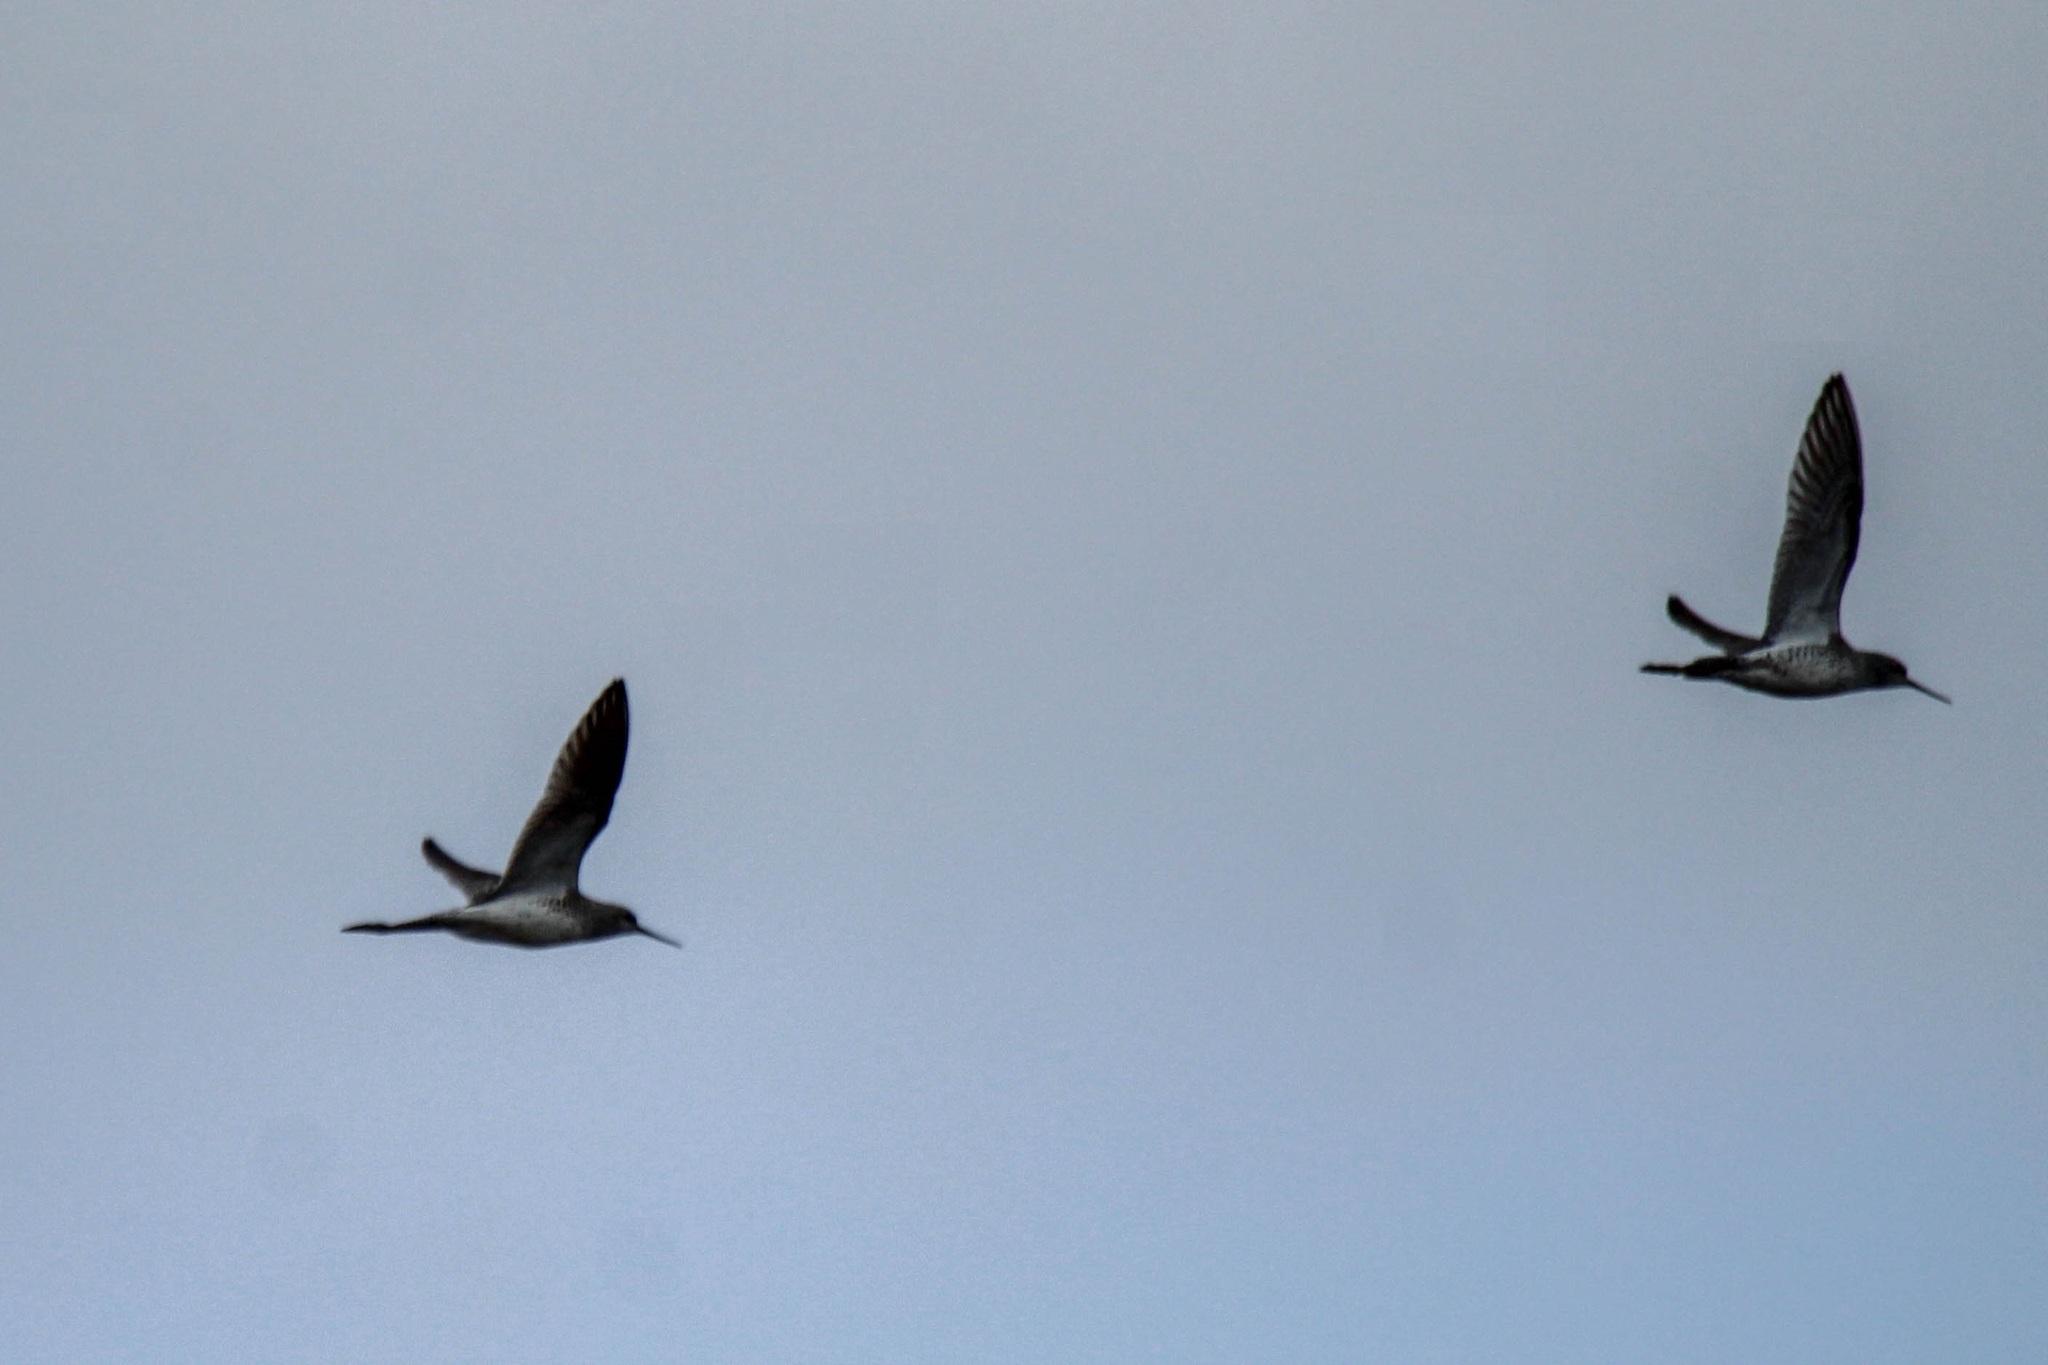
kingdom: Animalia
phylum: Chordata
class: Aves
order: Charadriiformes
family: Scolopacidae
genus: Tringa
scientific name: Tringa stagnatilis
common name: Marsh sandpiper
